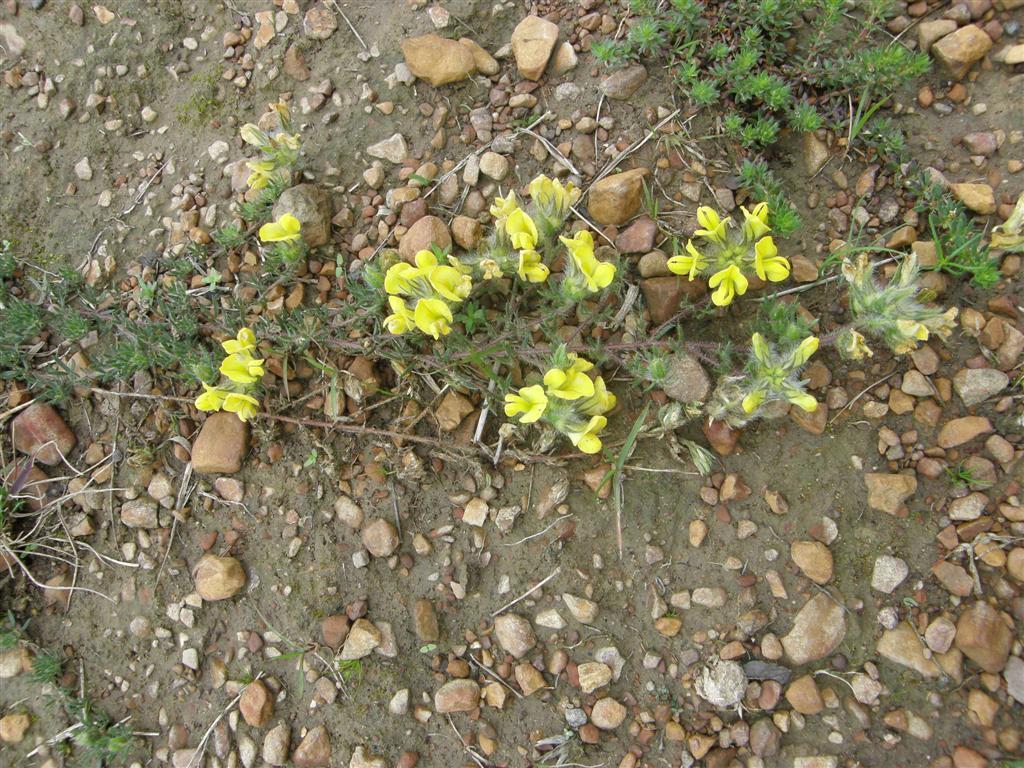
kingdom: Plantae
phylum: Tracheophyta
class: Magnoliopsida
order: Fabales
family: Fabaceae
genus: Lotononis
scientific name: Lotononis involucrata
